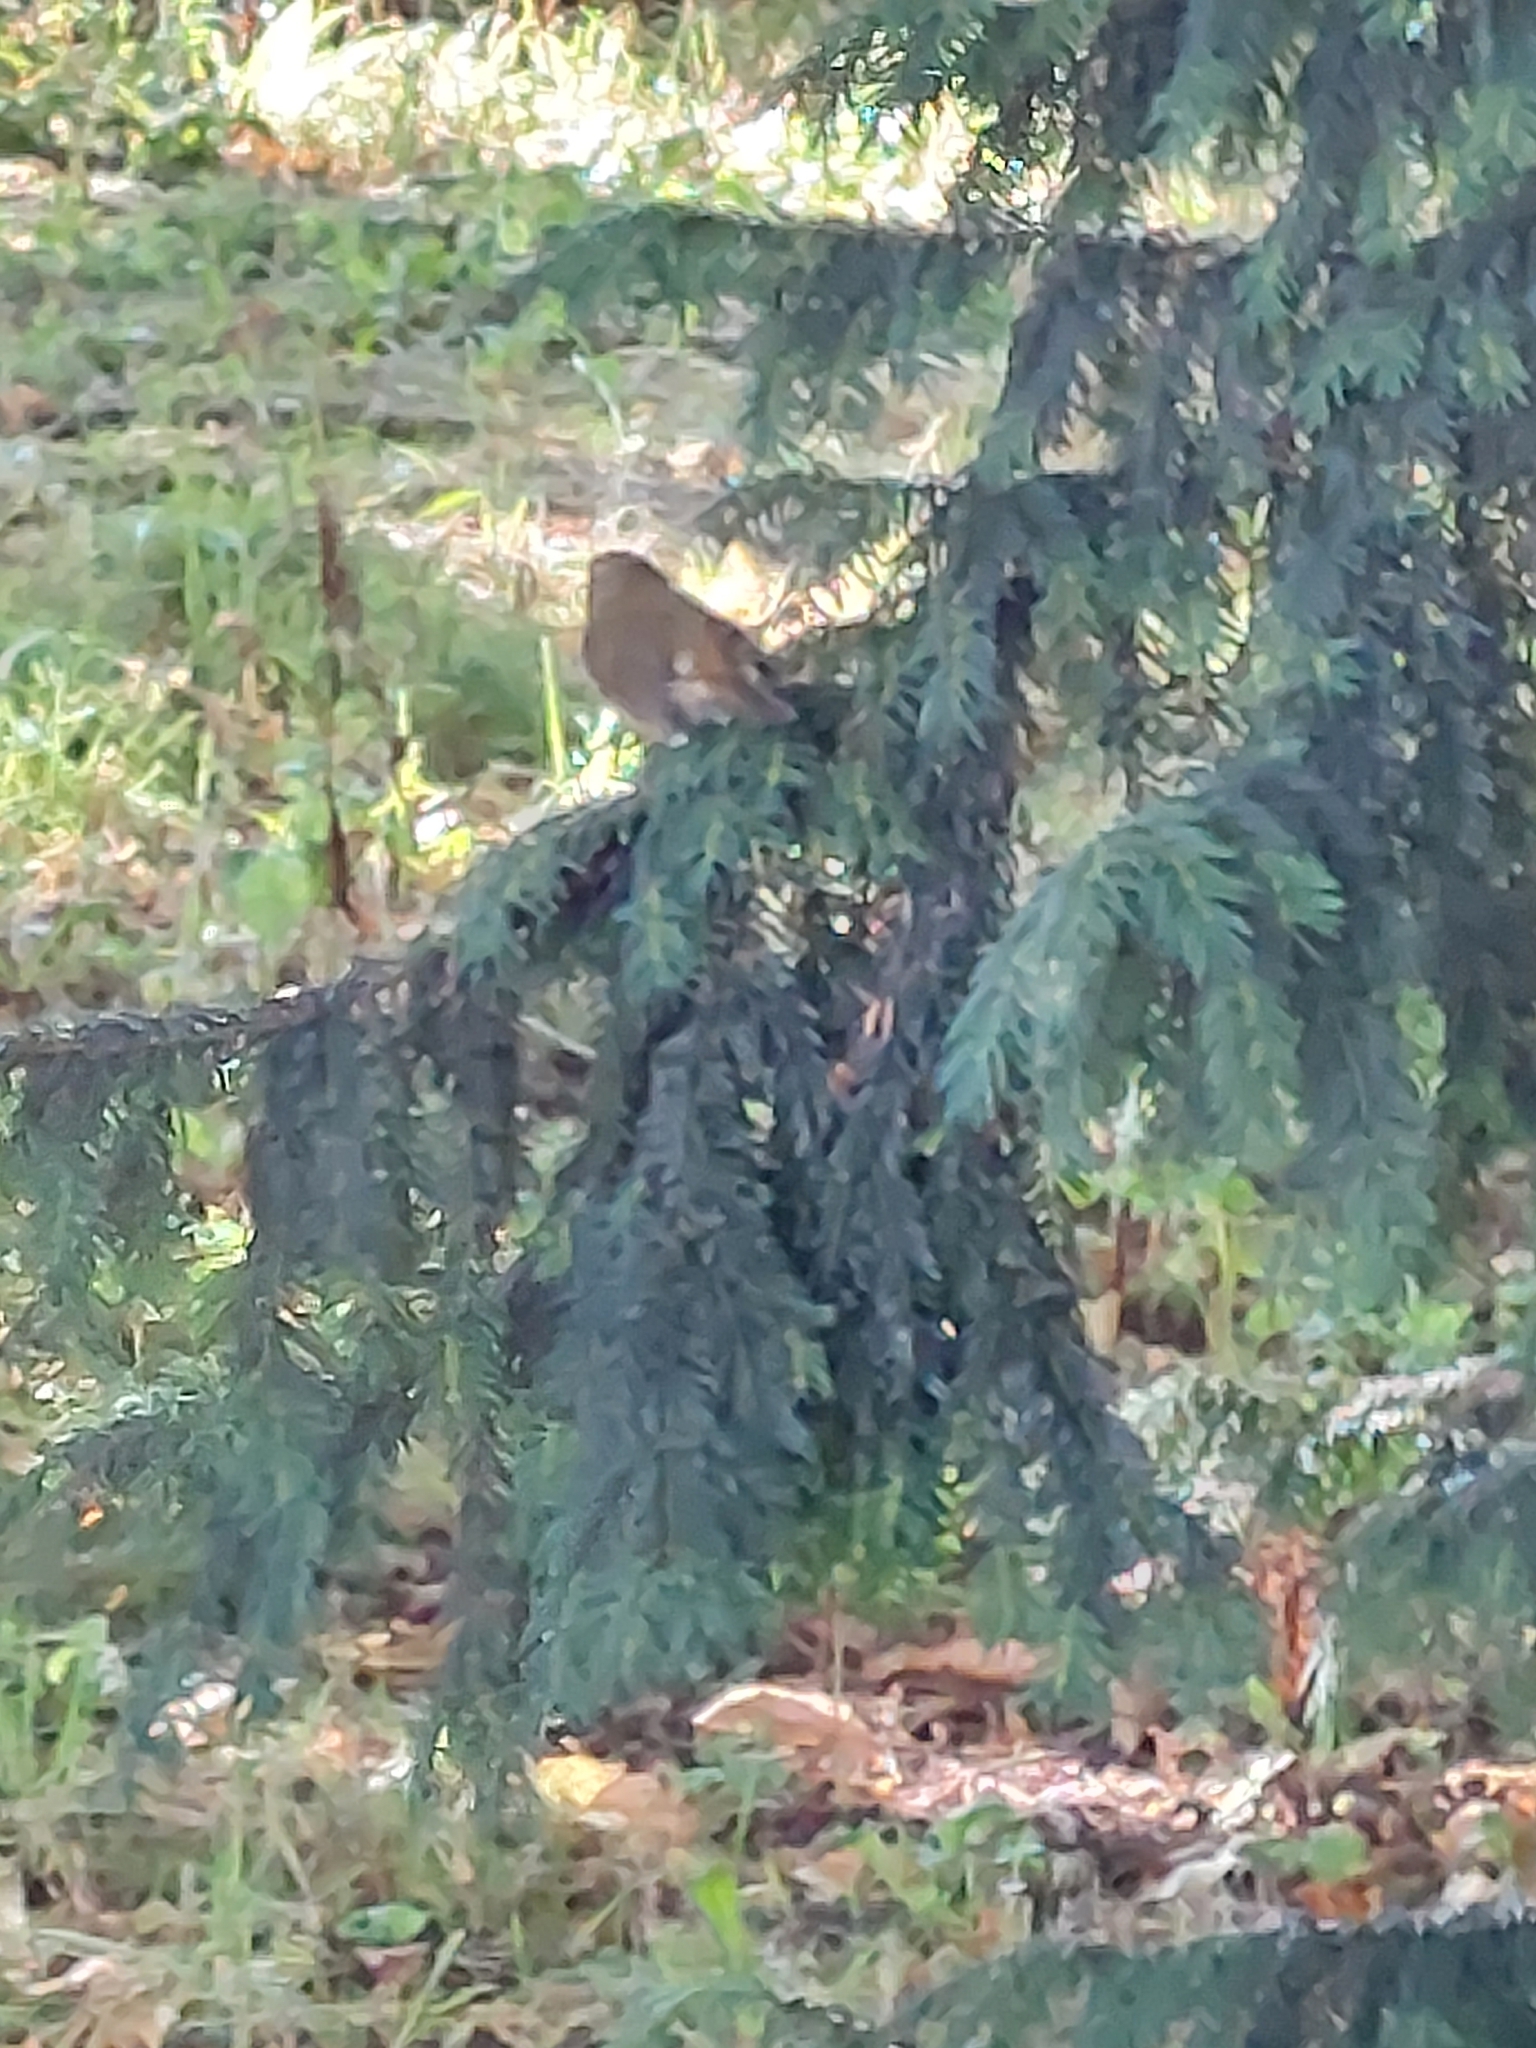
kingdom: Animalia
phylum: Chordata
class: Aves
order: Passeriformes
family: Muscicapidae
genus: Erithacus
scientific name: Erithacus rubecula
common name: European robin
